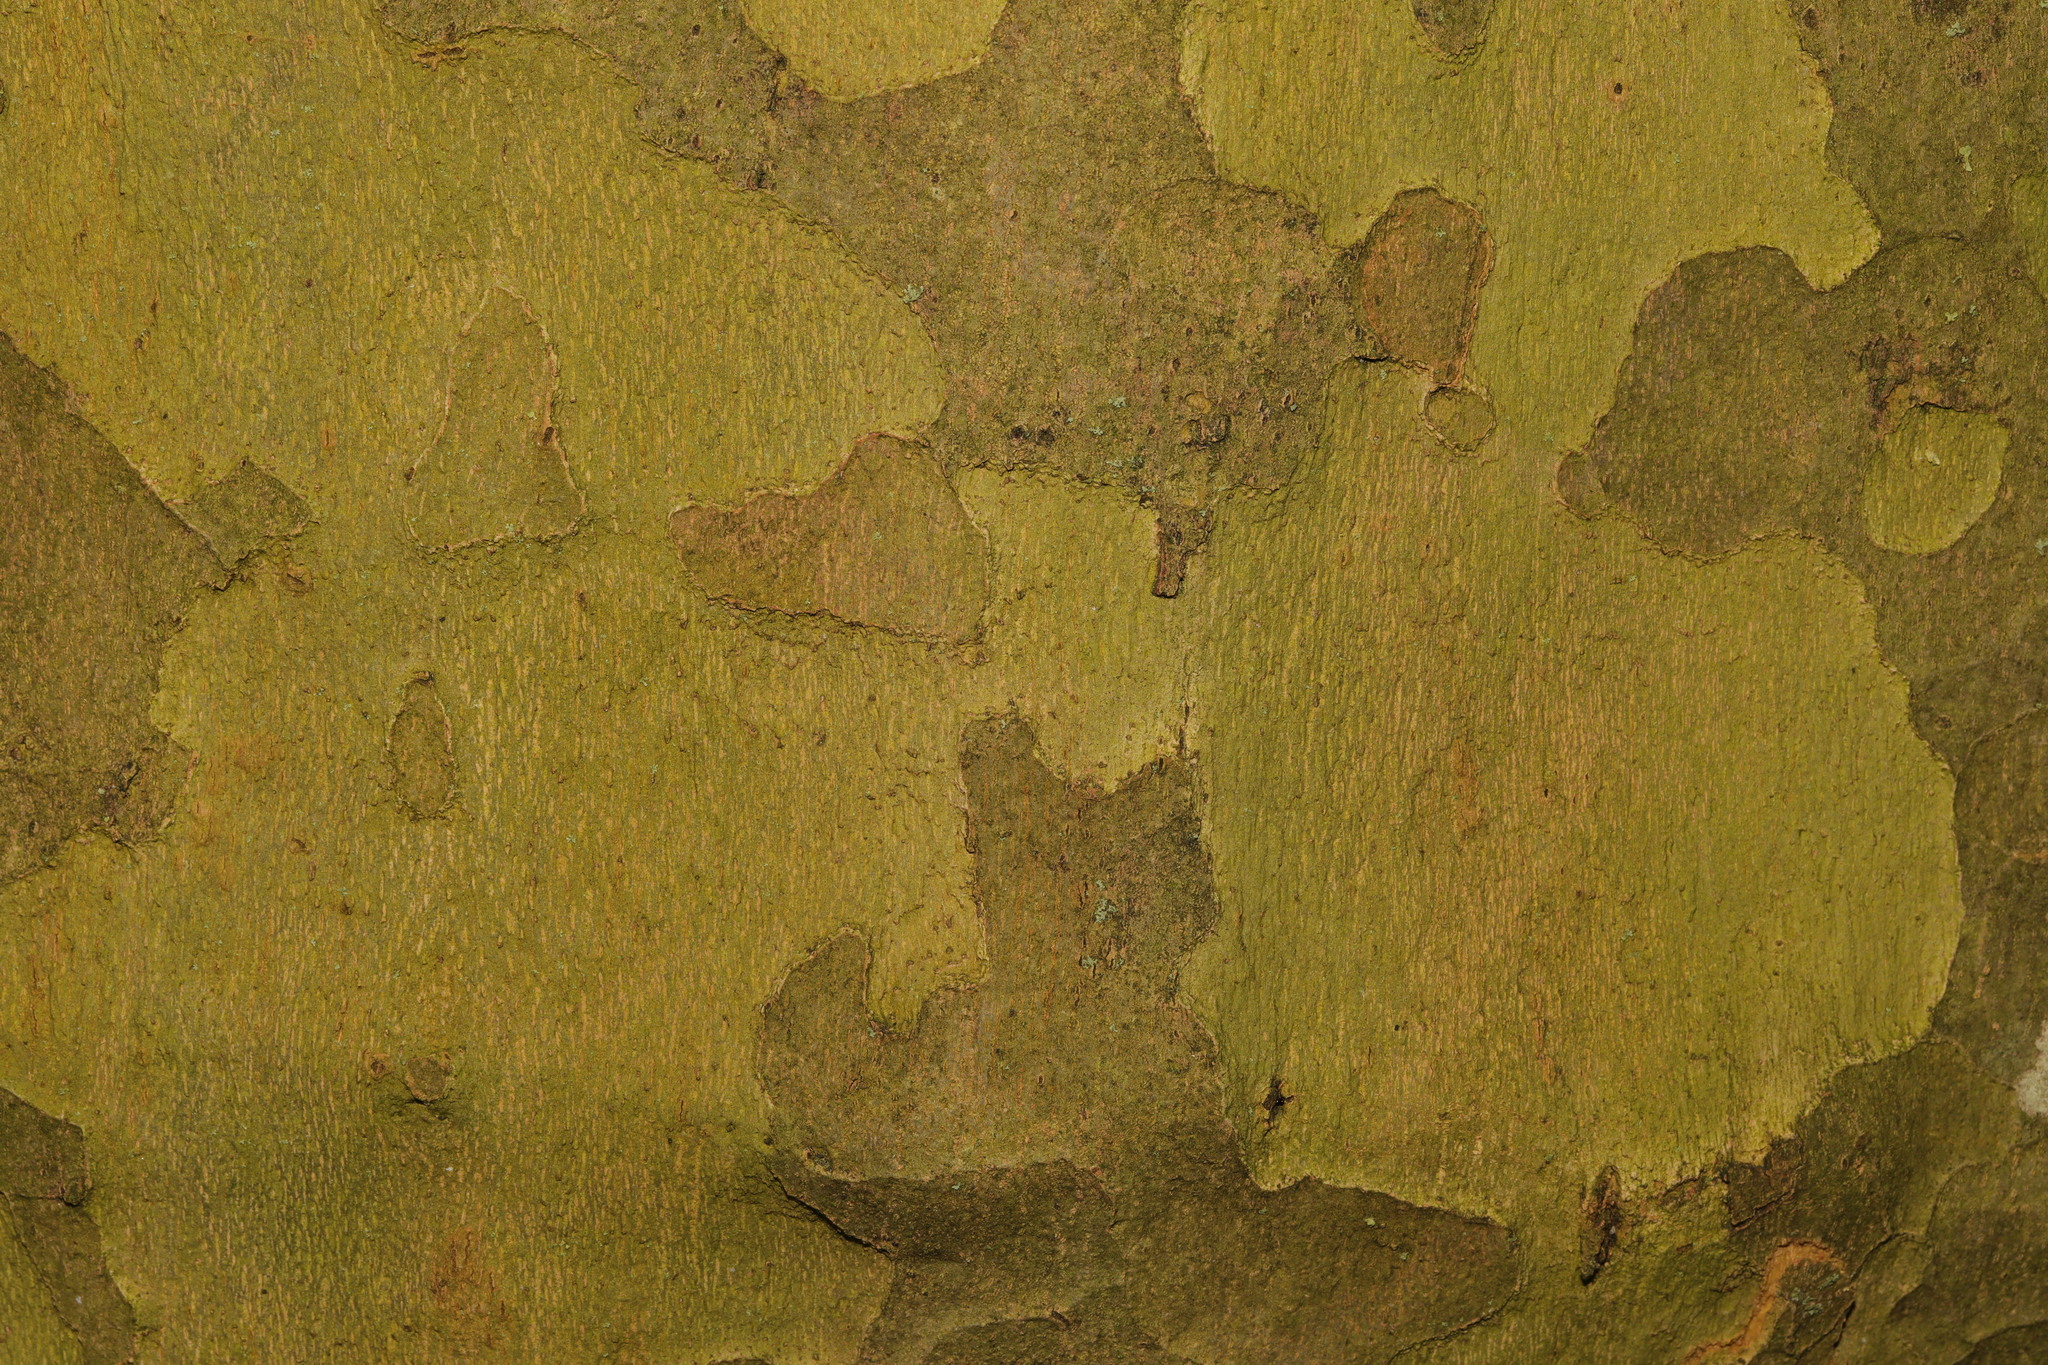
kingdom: Plantae
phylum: Tracheophyta
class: Magnoliopsida
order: Proteales
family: Platanaceae
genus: Platanus
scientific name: Platanus hispanica
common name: London plane
